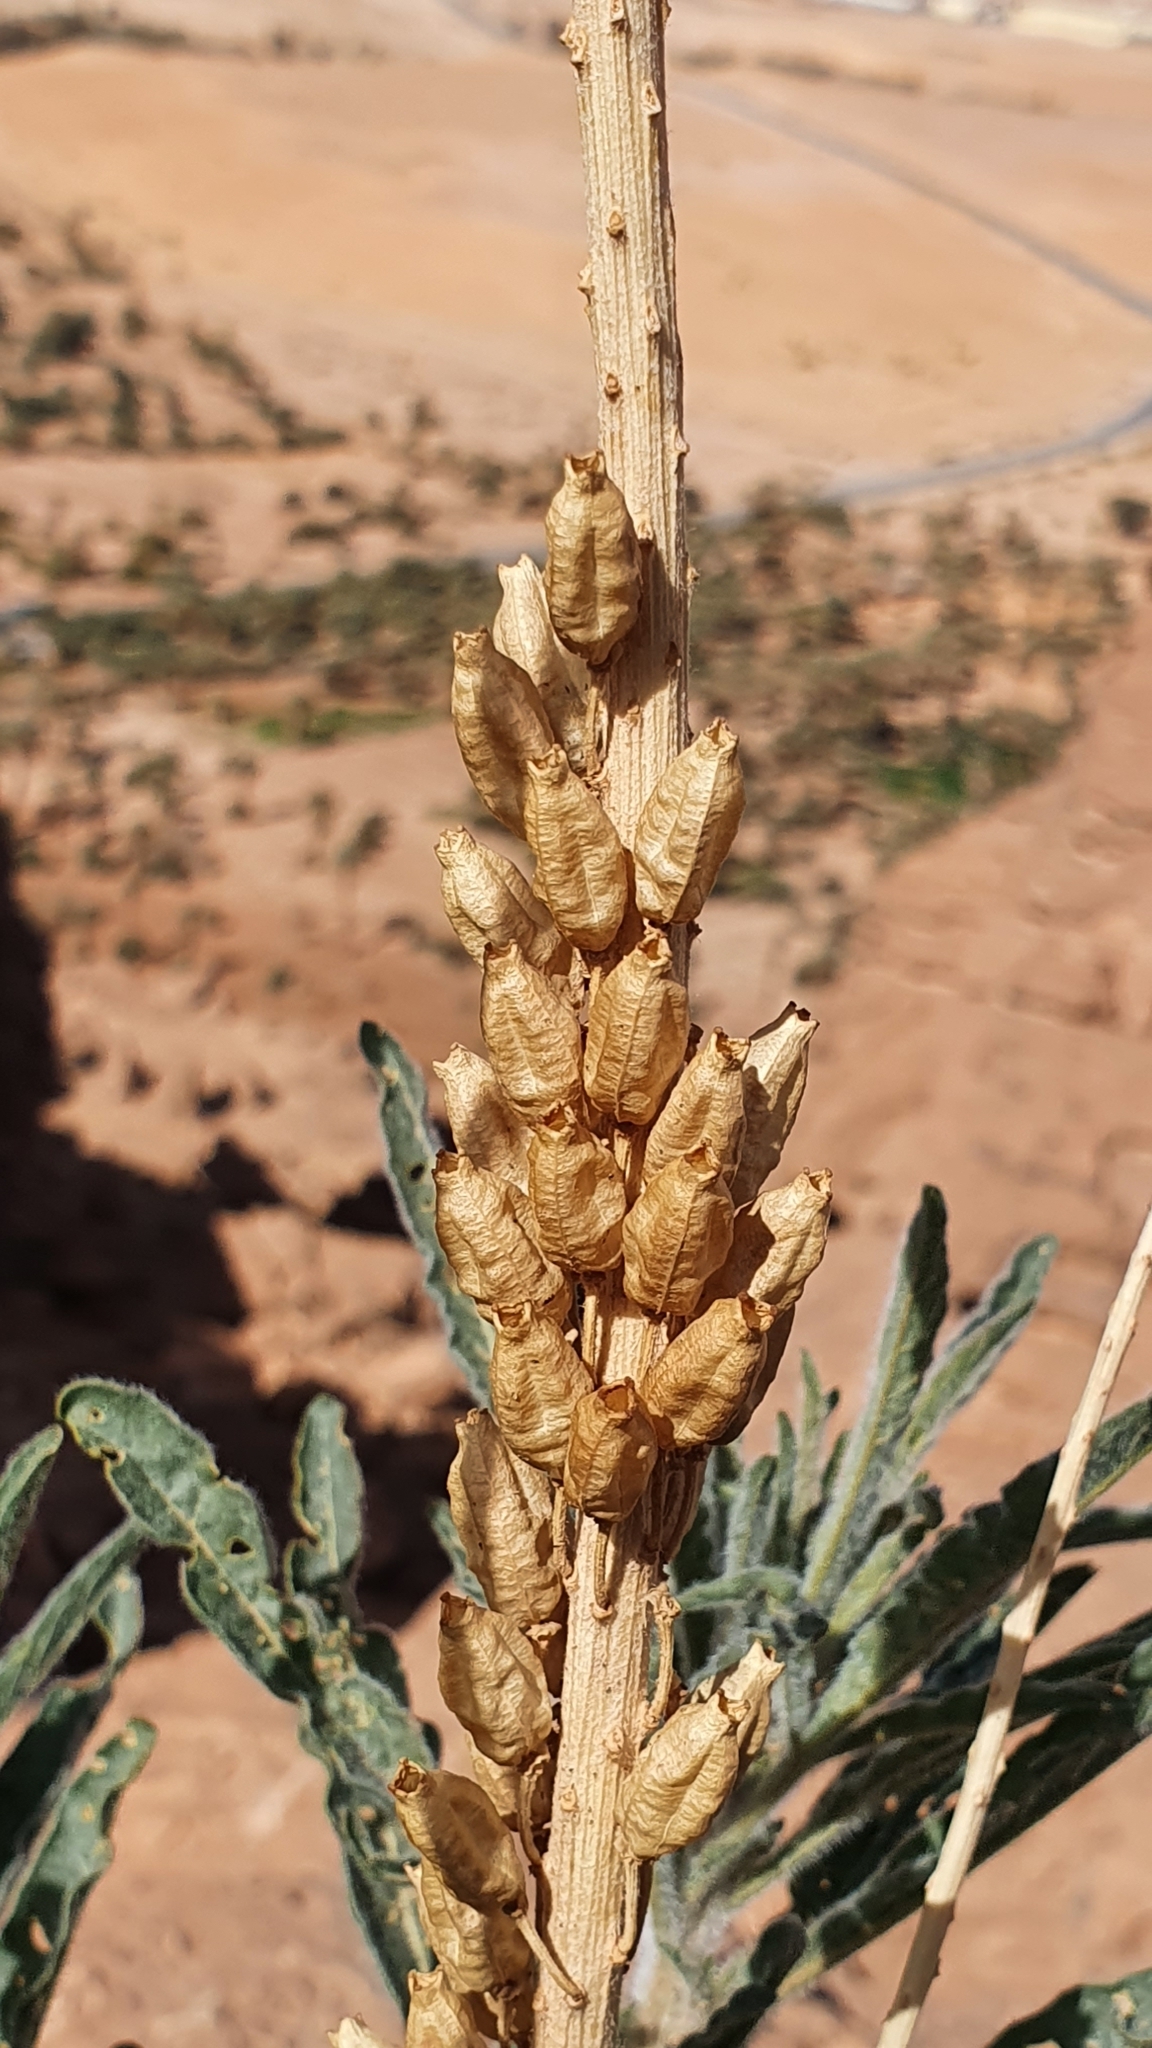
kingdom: Plantae
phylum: Tracheophyta
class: Magnoliopsida
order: Brassicales
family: Resedaceae
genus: Reseda
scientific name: Reseda villosa
